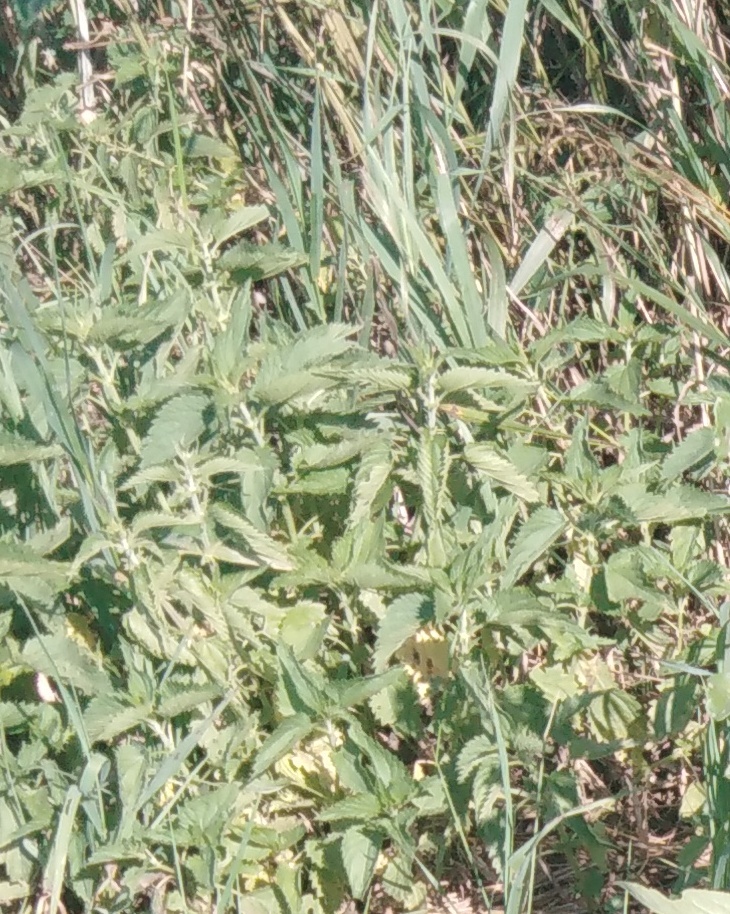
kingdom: Plantae
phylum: Tracheophyta
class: Magnoliopsida
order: Rosales
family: Urticaceae
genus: Urtica
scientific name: Urtica dioica
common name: Common nettle
